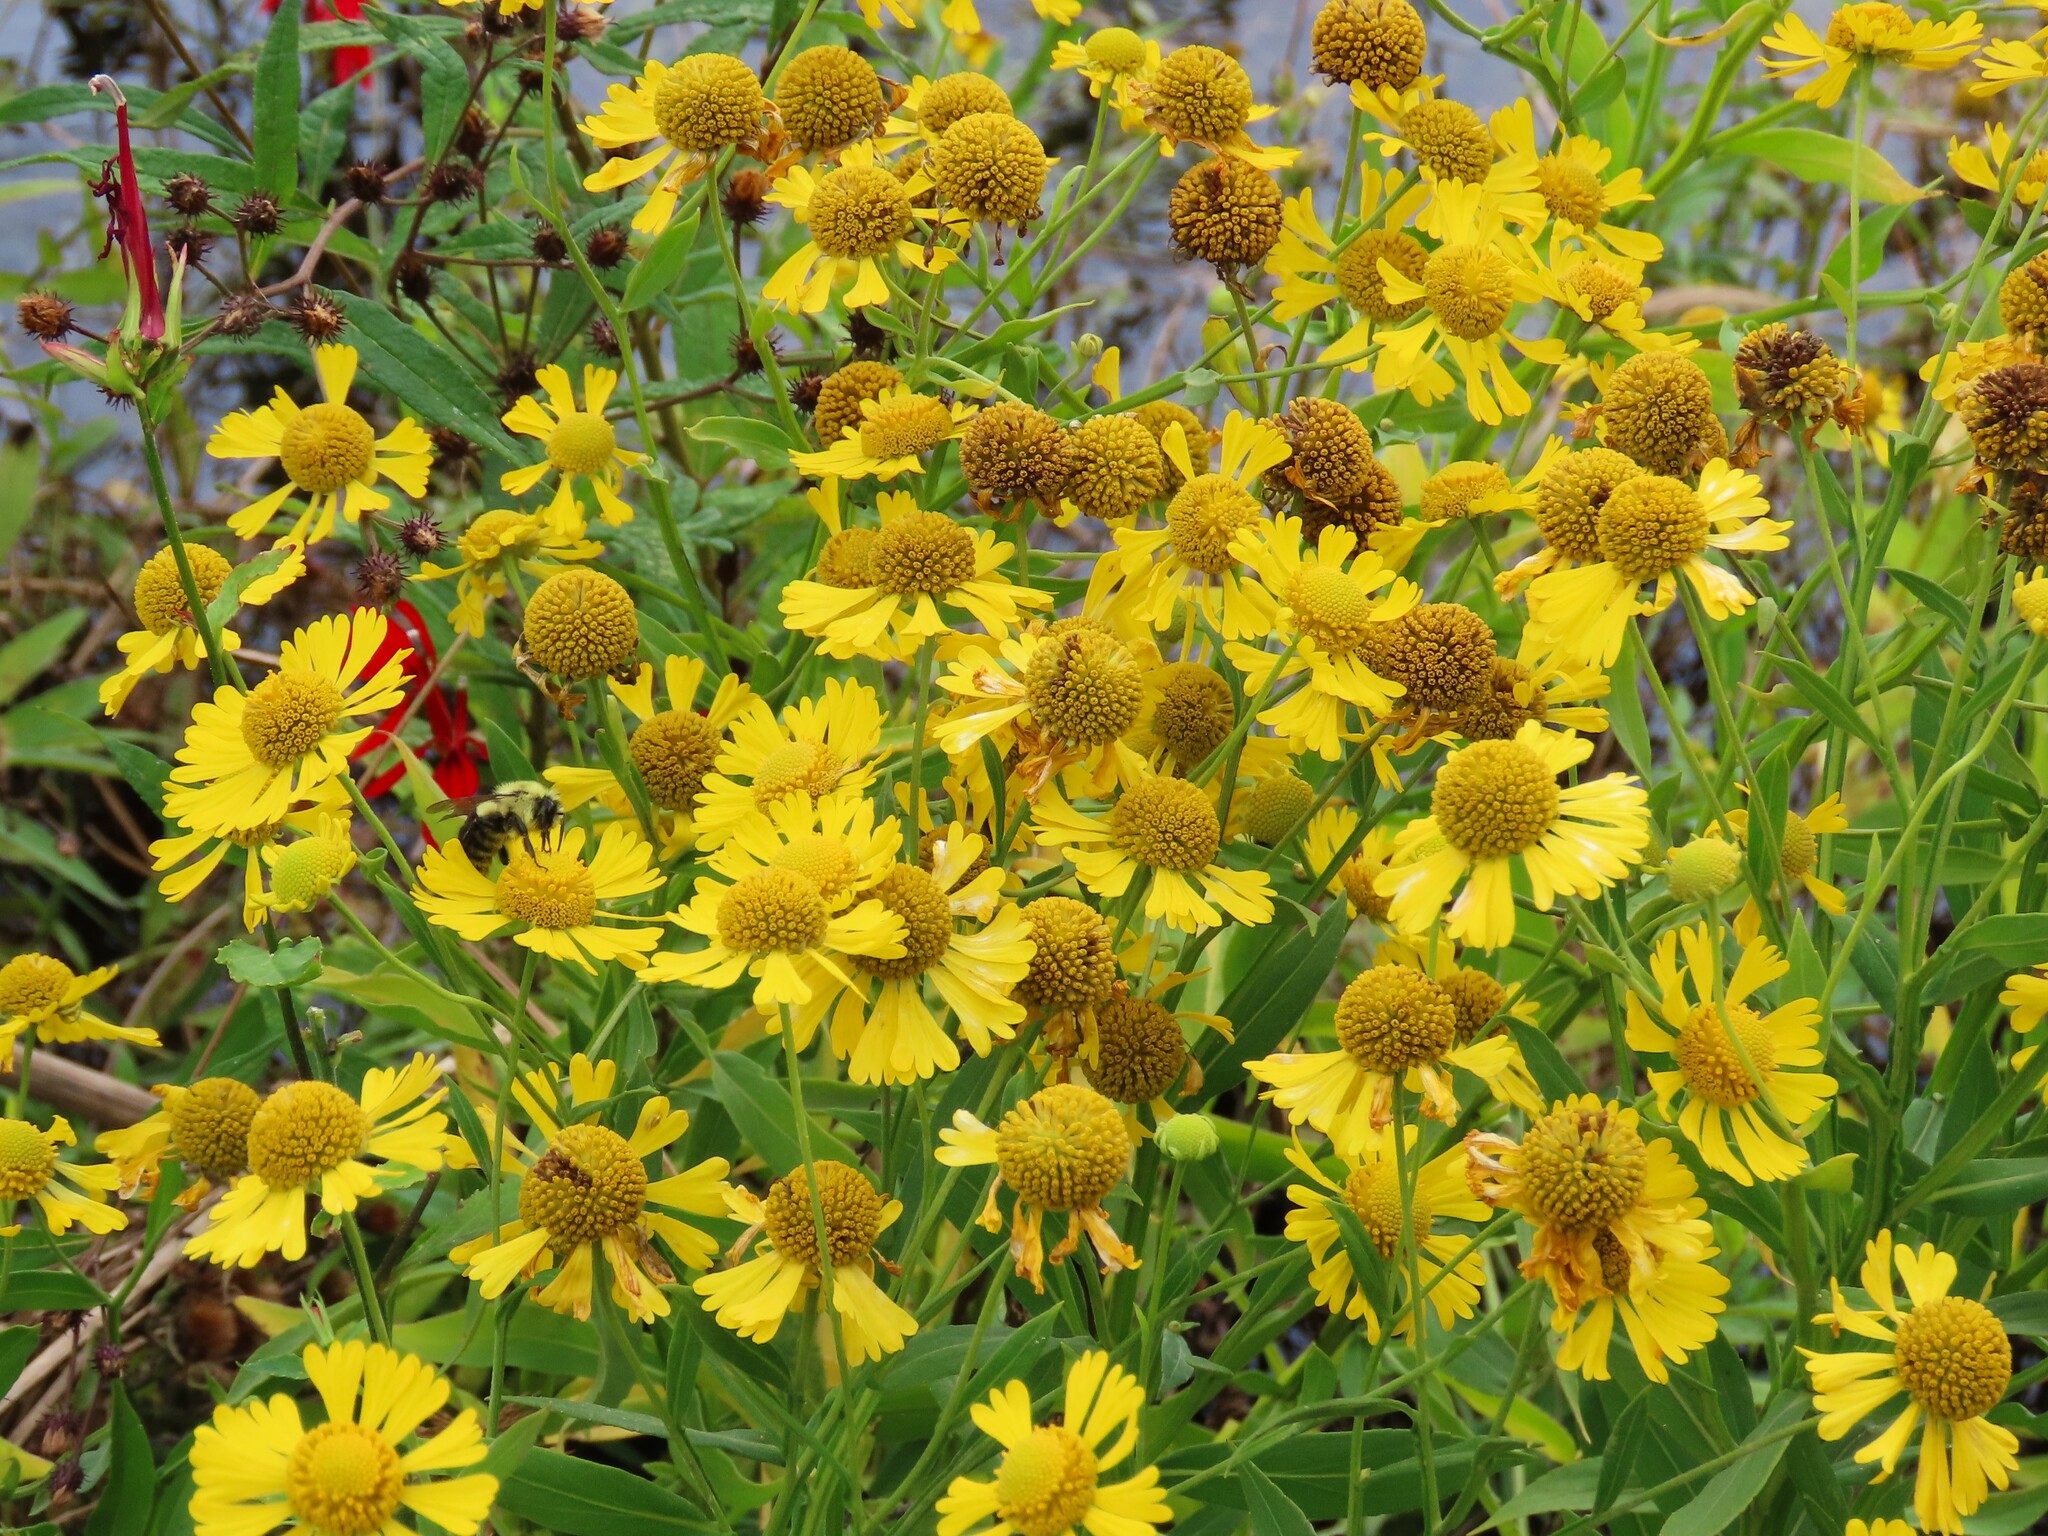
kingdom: Plantae
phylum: Tracheophyta
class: Magnoliopsida
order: Asterales
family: Asteraceae
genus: Helenium
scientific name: Helenium autumnale
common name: Sneezeweed
